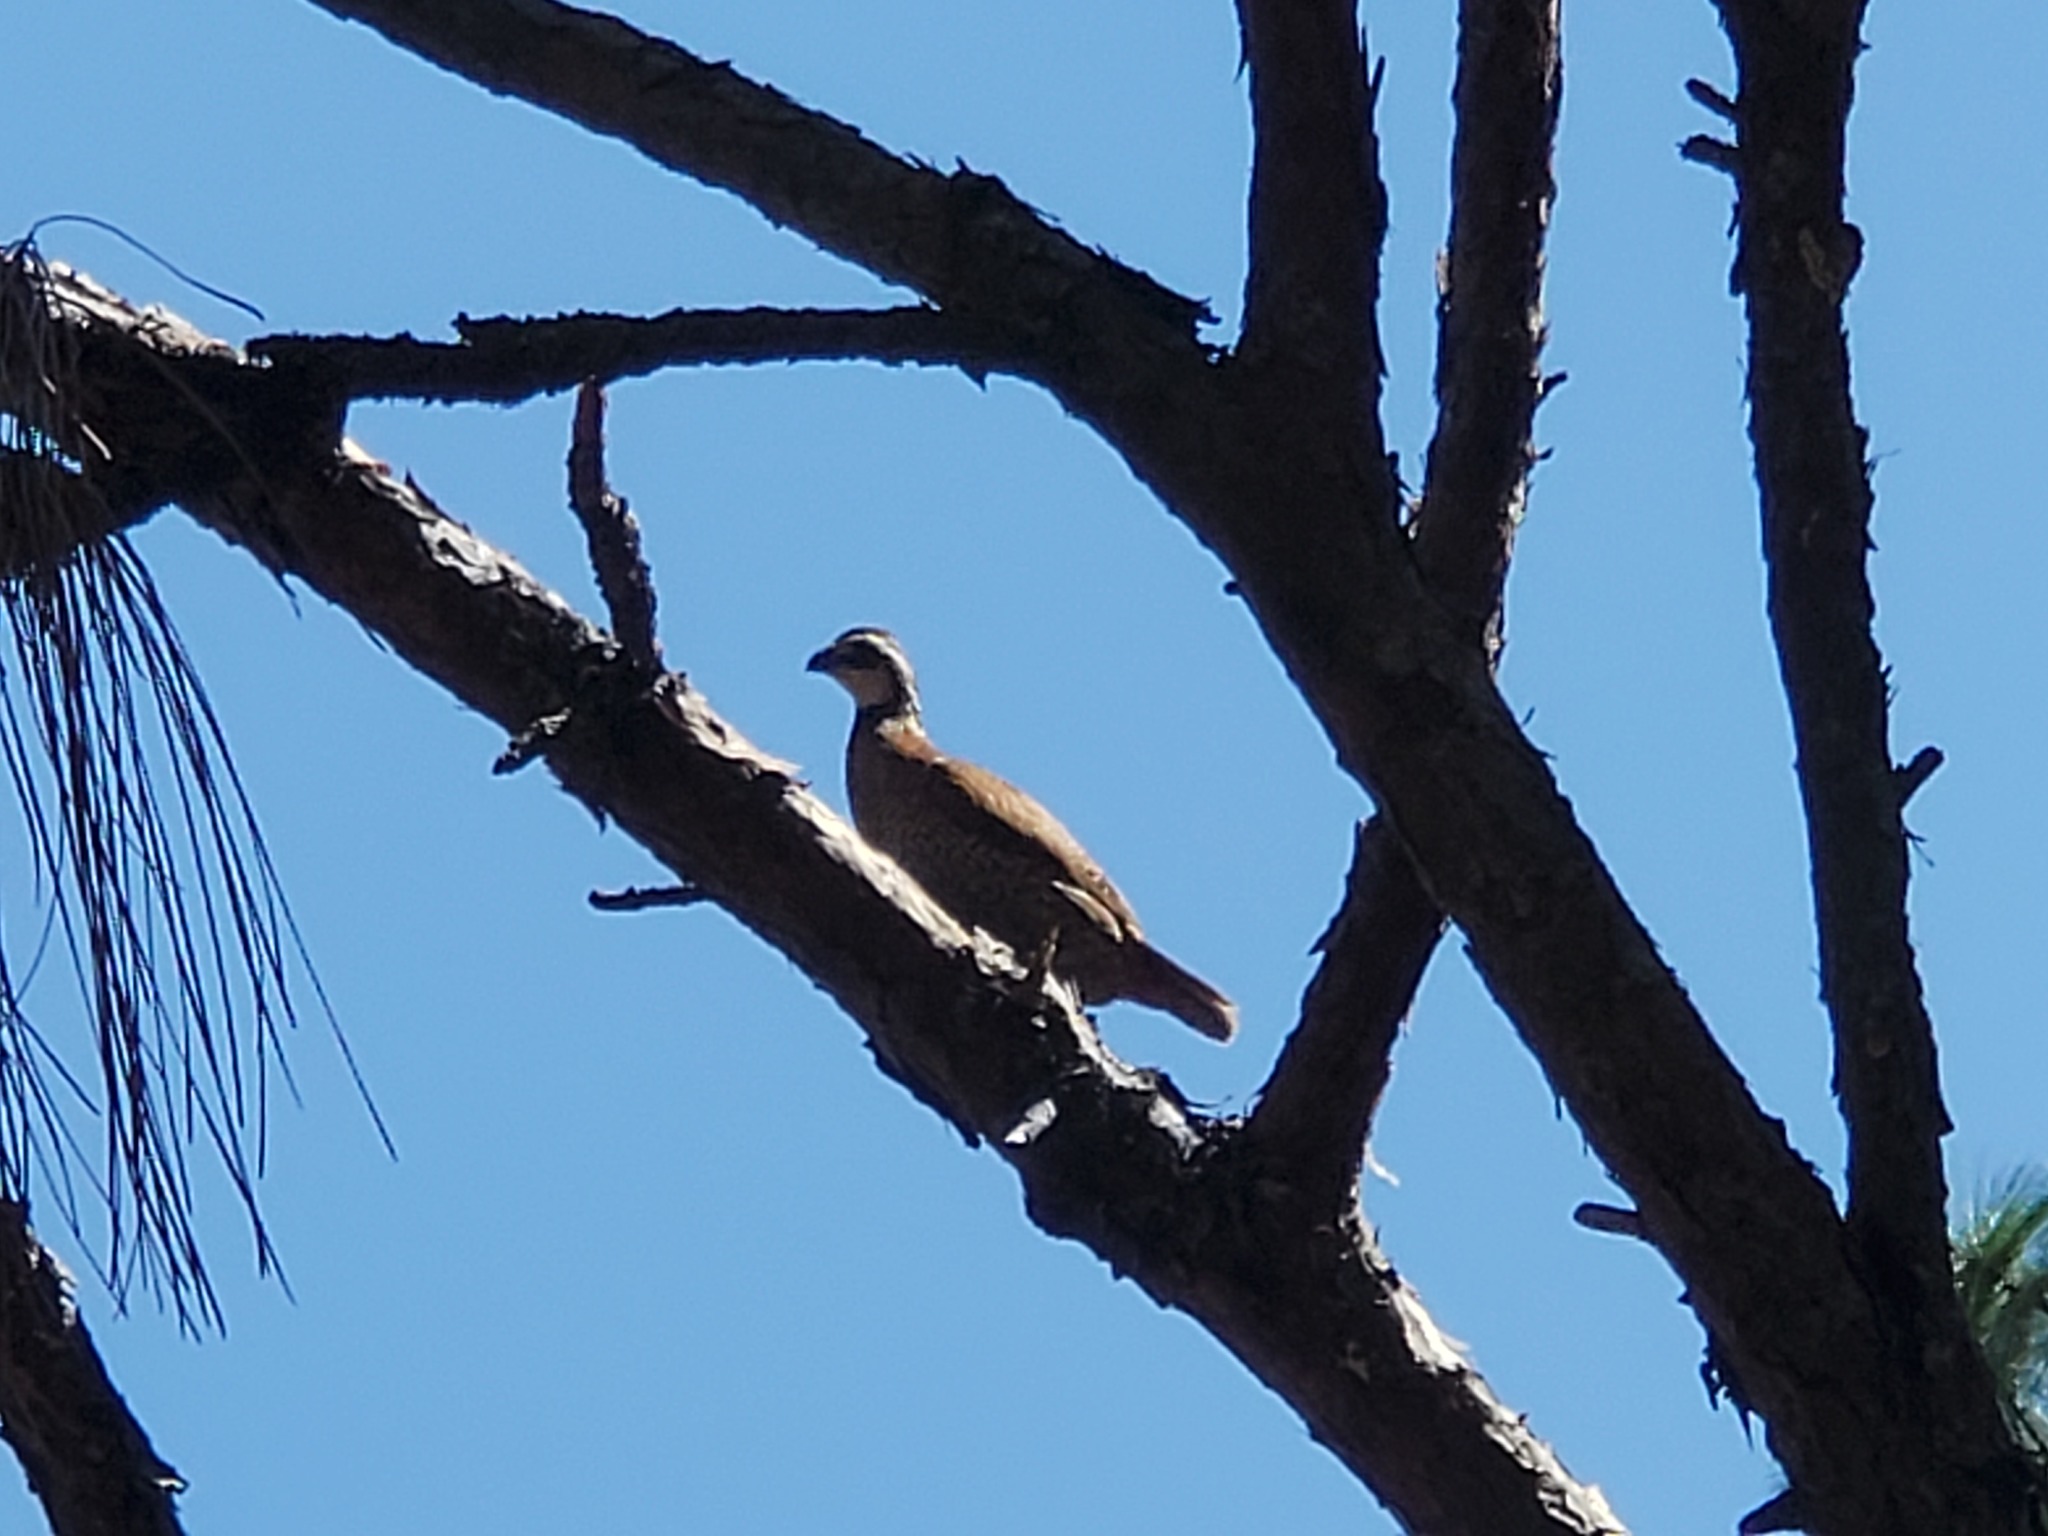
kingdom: Animalia
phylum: Chordata
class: Aves
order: Galliformes
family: Odontophoridae
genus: Colinus
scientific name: Colinus virginianus
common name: Northern bobwhite
